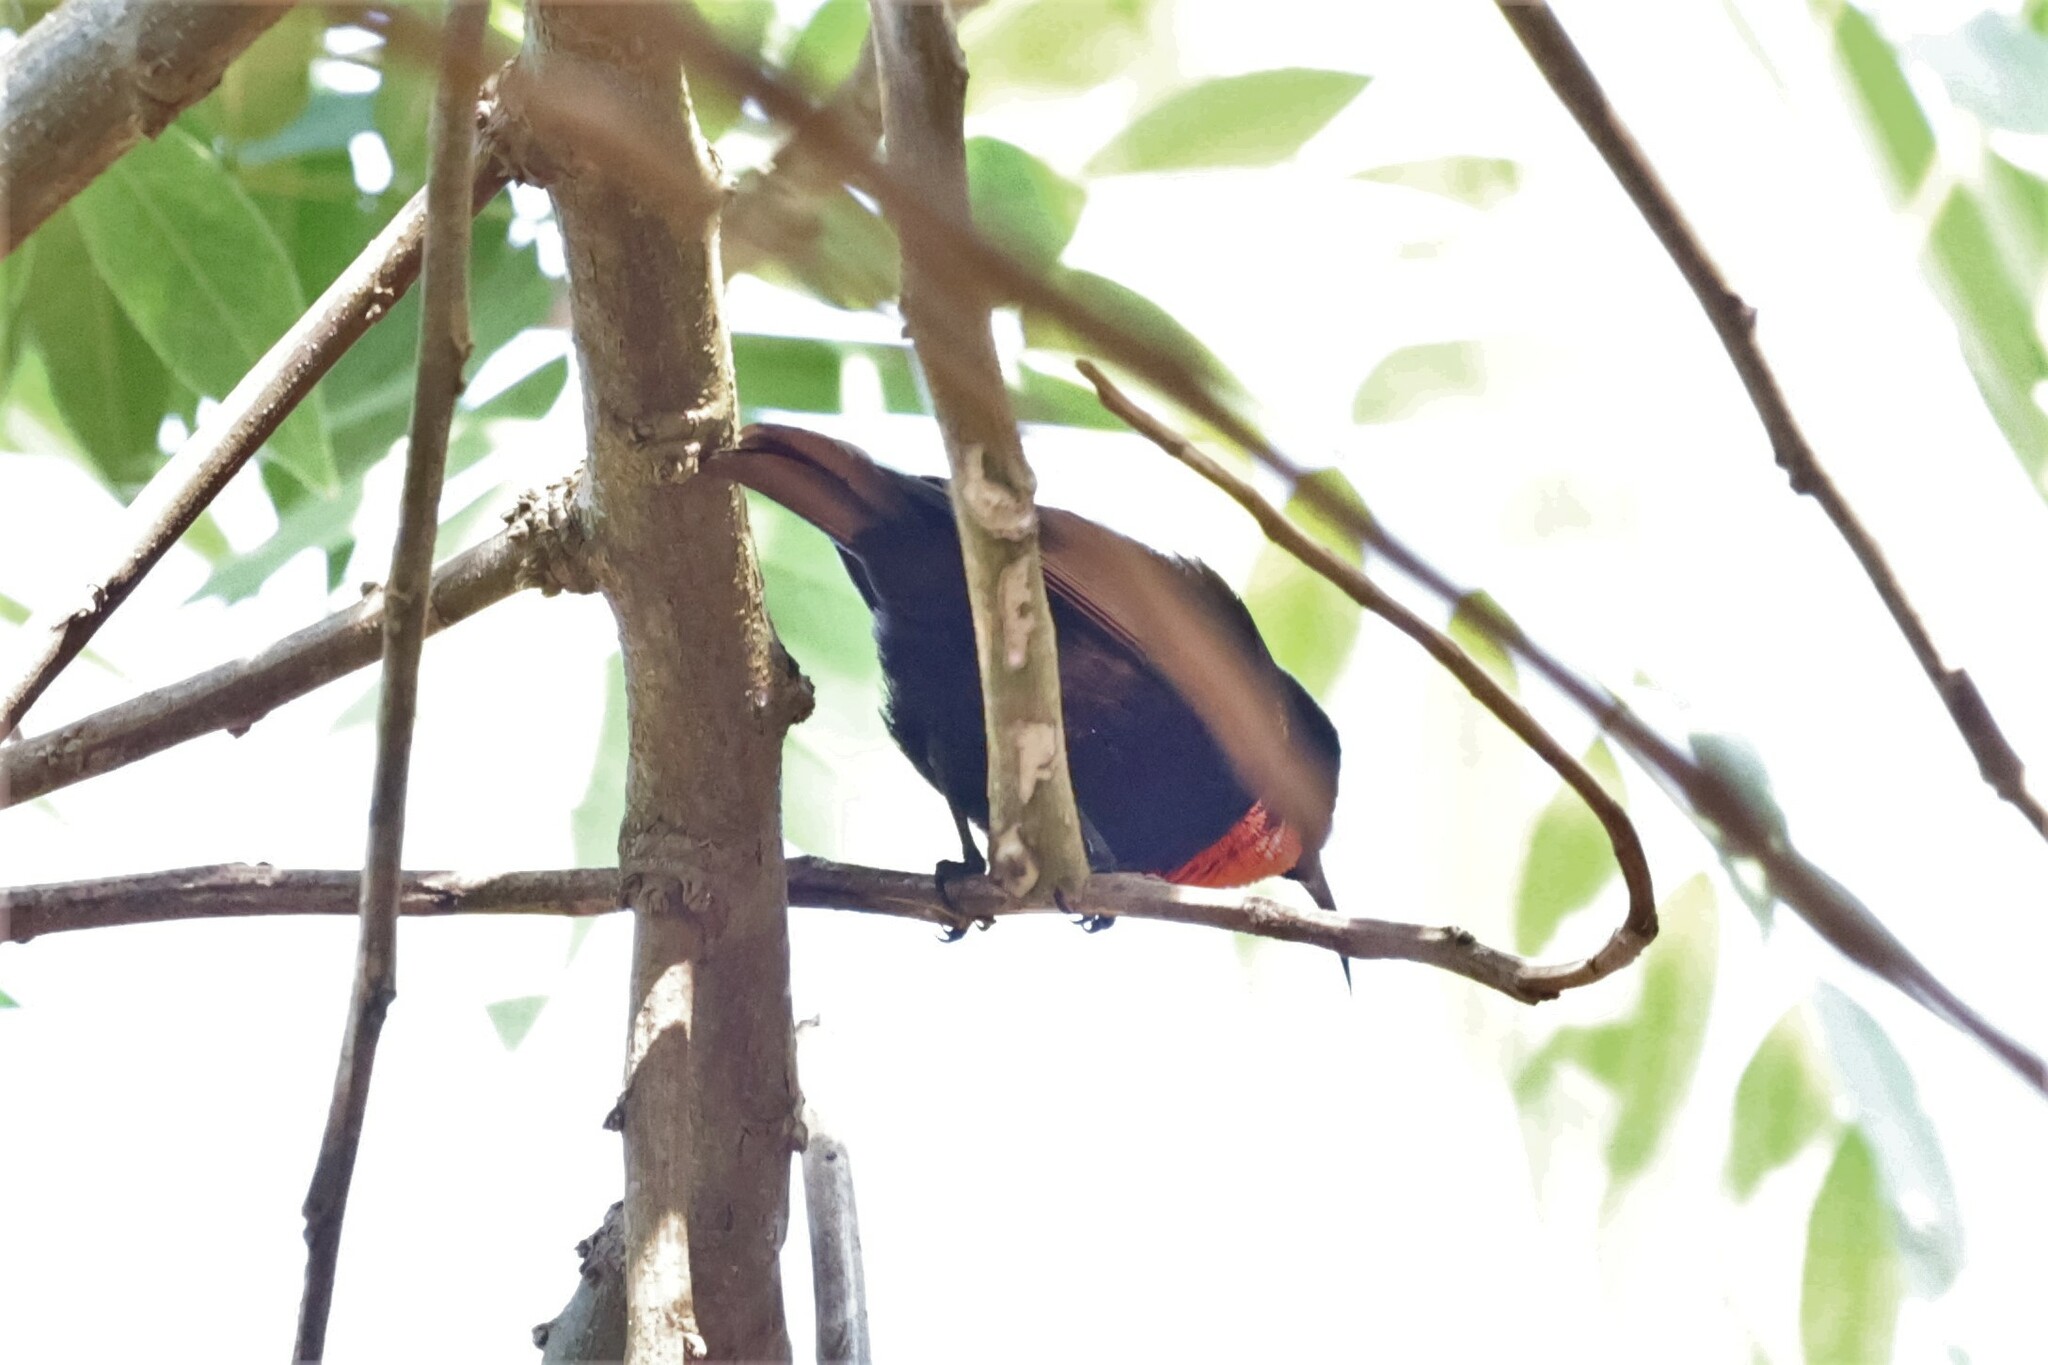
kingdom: Animalia
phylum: Chordata
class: Aves
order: Passeriformes
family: Nectariniidae
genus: Chalcomitra
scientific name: Chalcomitra senegalensis
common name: Scarlet-chested sunbird
